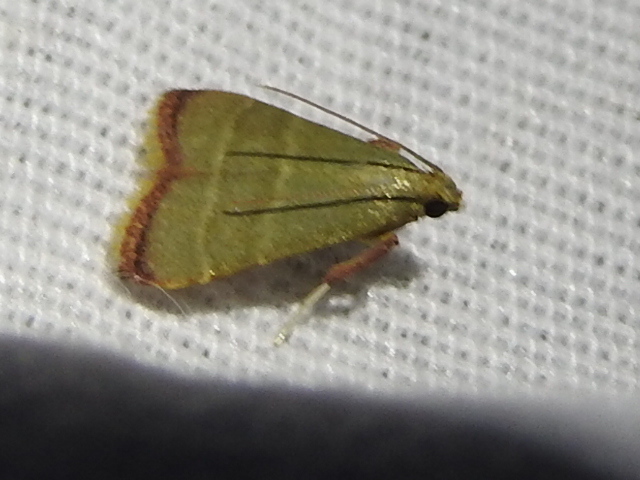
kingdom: Animalia
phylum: Arthropoda
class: Insecta
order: Lepidoptera
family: Pyralidae
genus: Arta
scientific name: Arta olivalis
